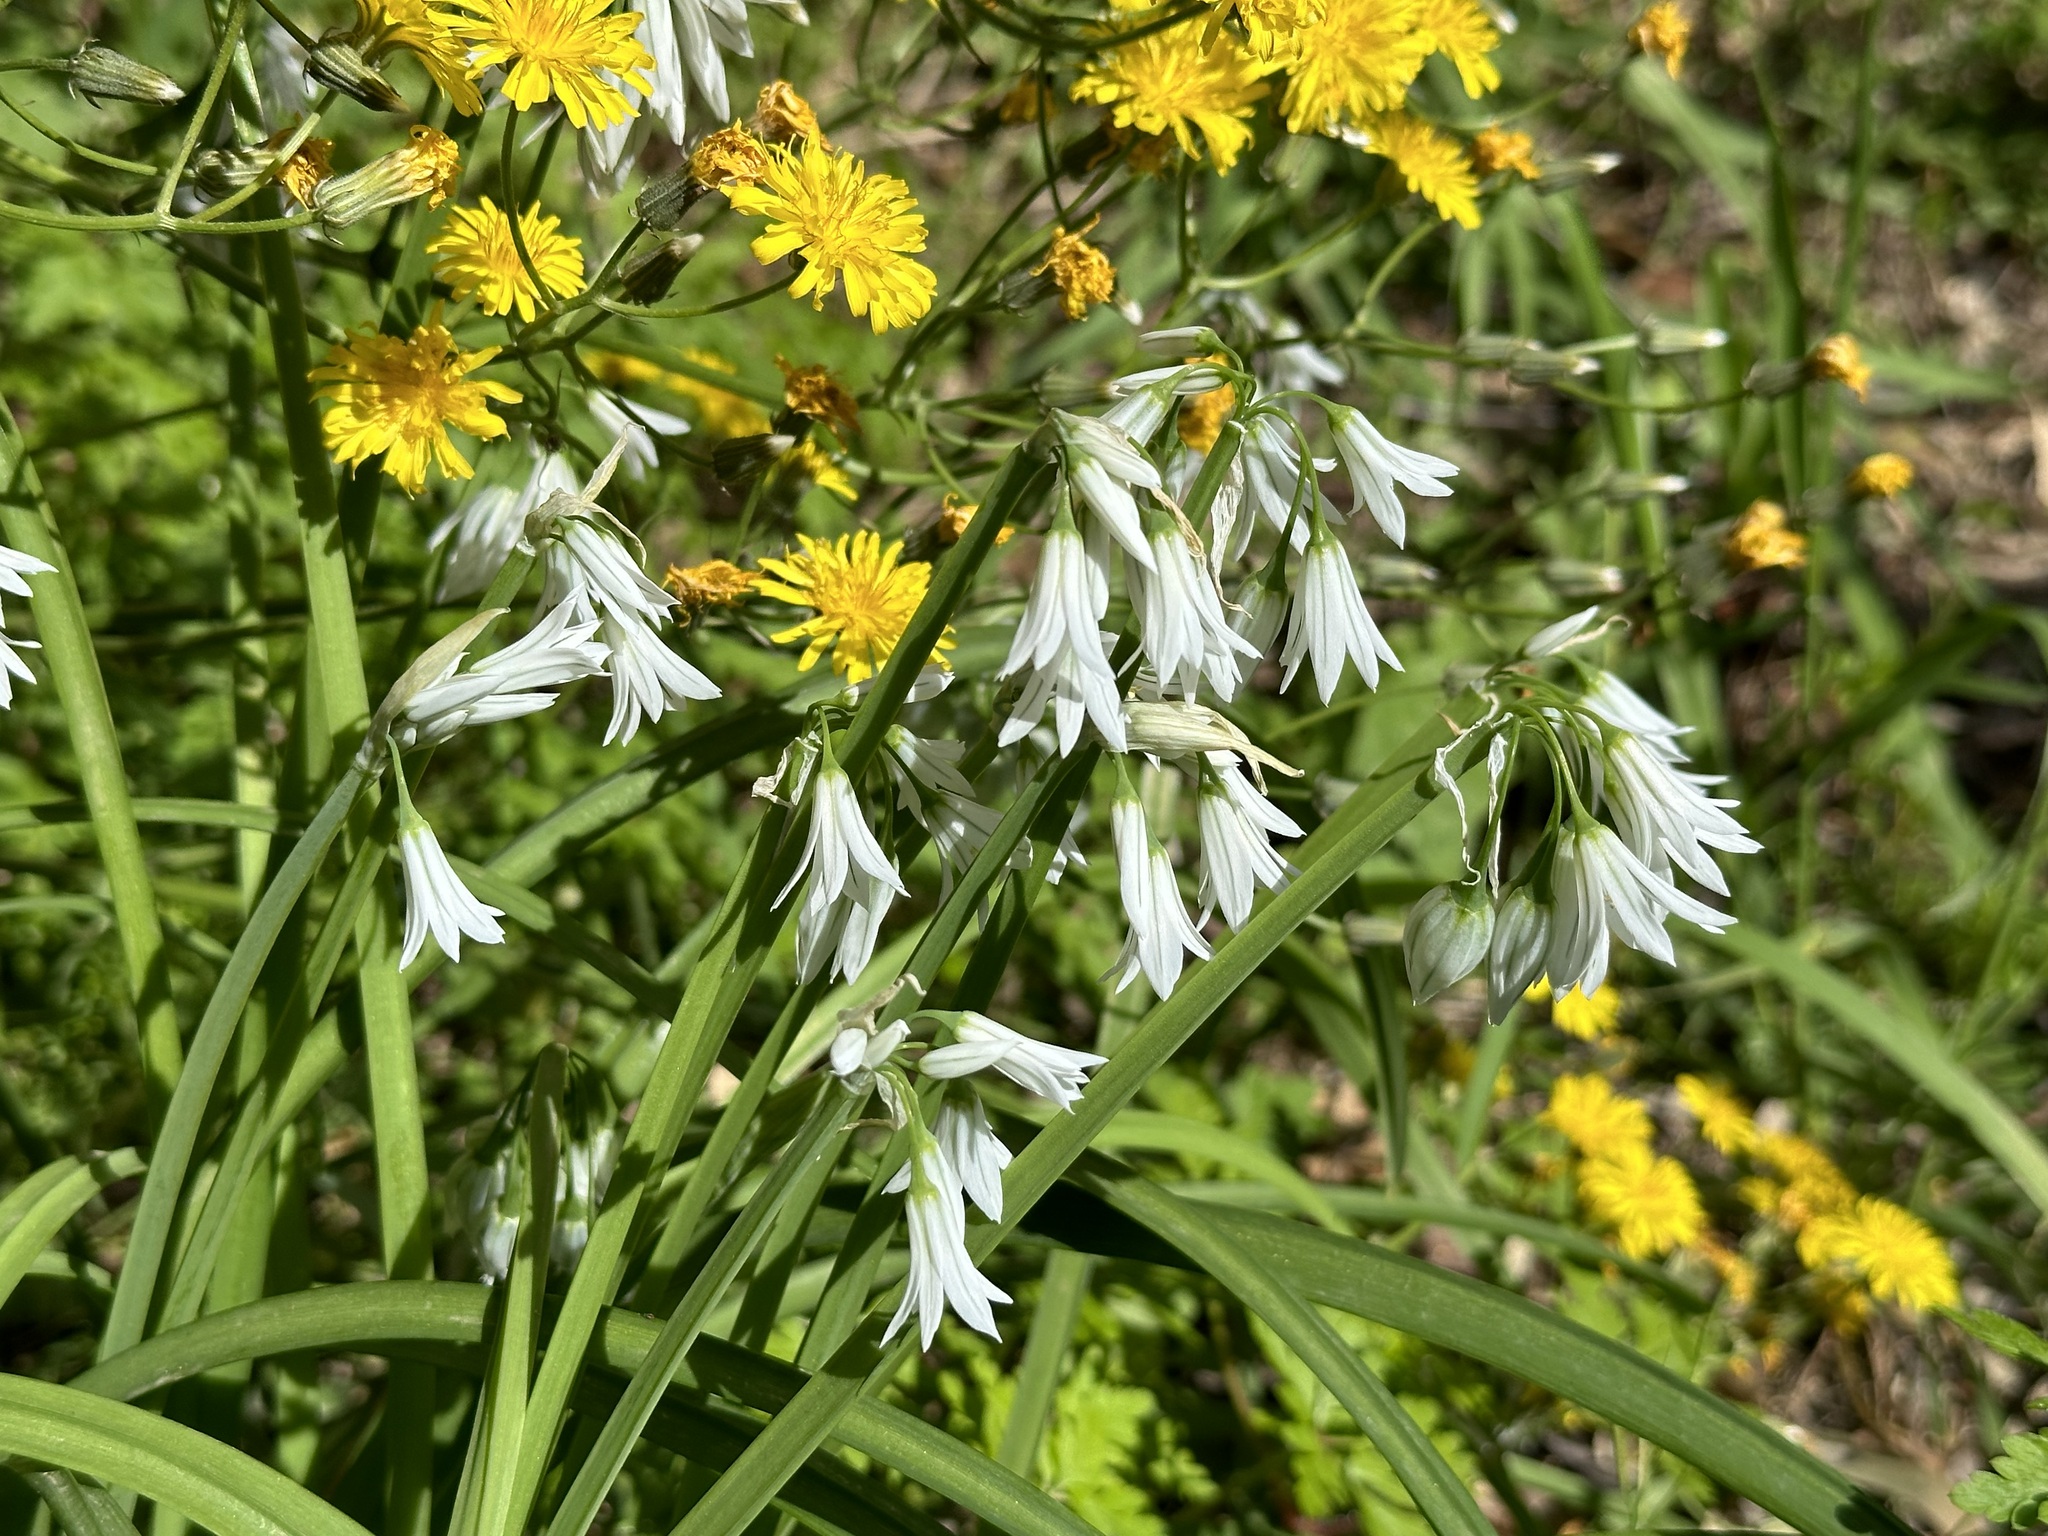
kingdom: Plantae
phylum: Tracheophyta
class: Liliopsida
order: Asparagales
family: Amaryllidaceae
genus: Allium
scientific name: Allium triquetrum
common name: Three-cornered garlic
